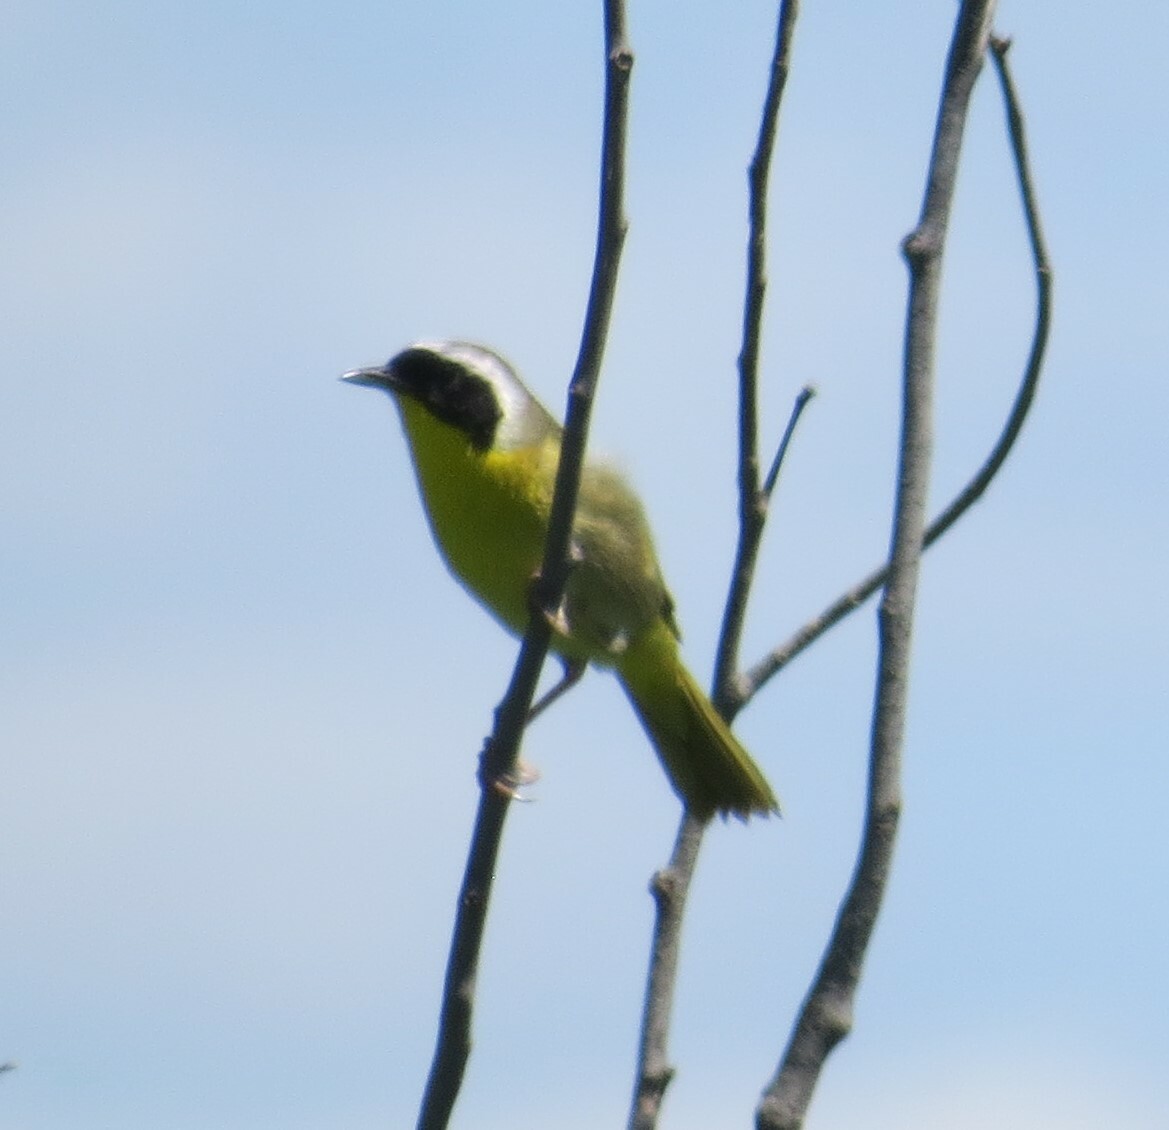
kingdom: Animalia
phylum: Chordata
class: Aves
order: Passeriformes
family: Parulidae
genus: Geothlypis
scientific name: Geothlypis trichas
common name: Common yellowthroat
